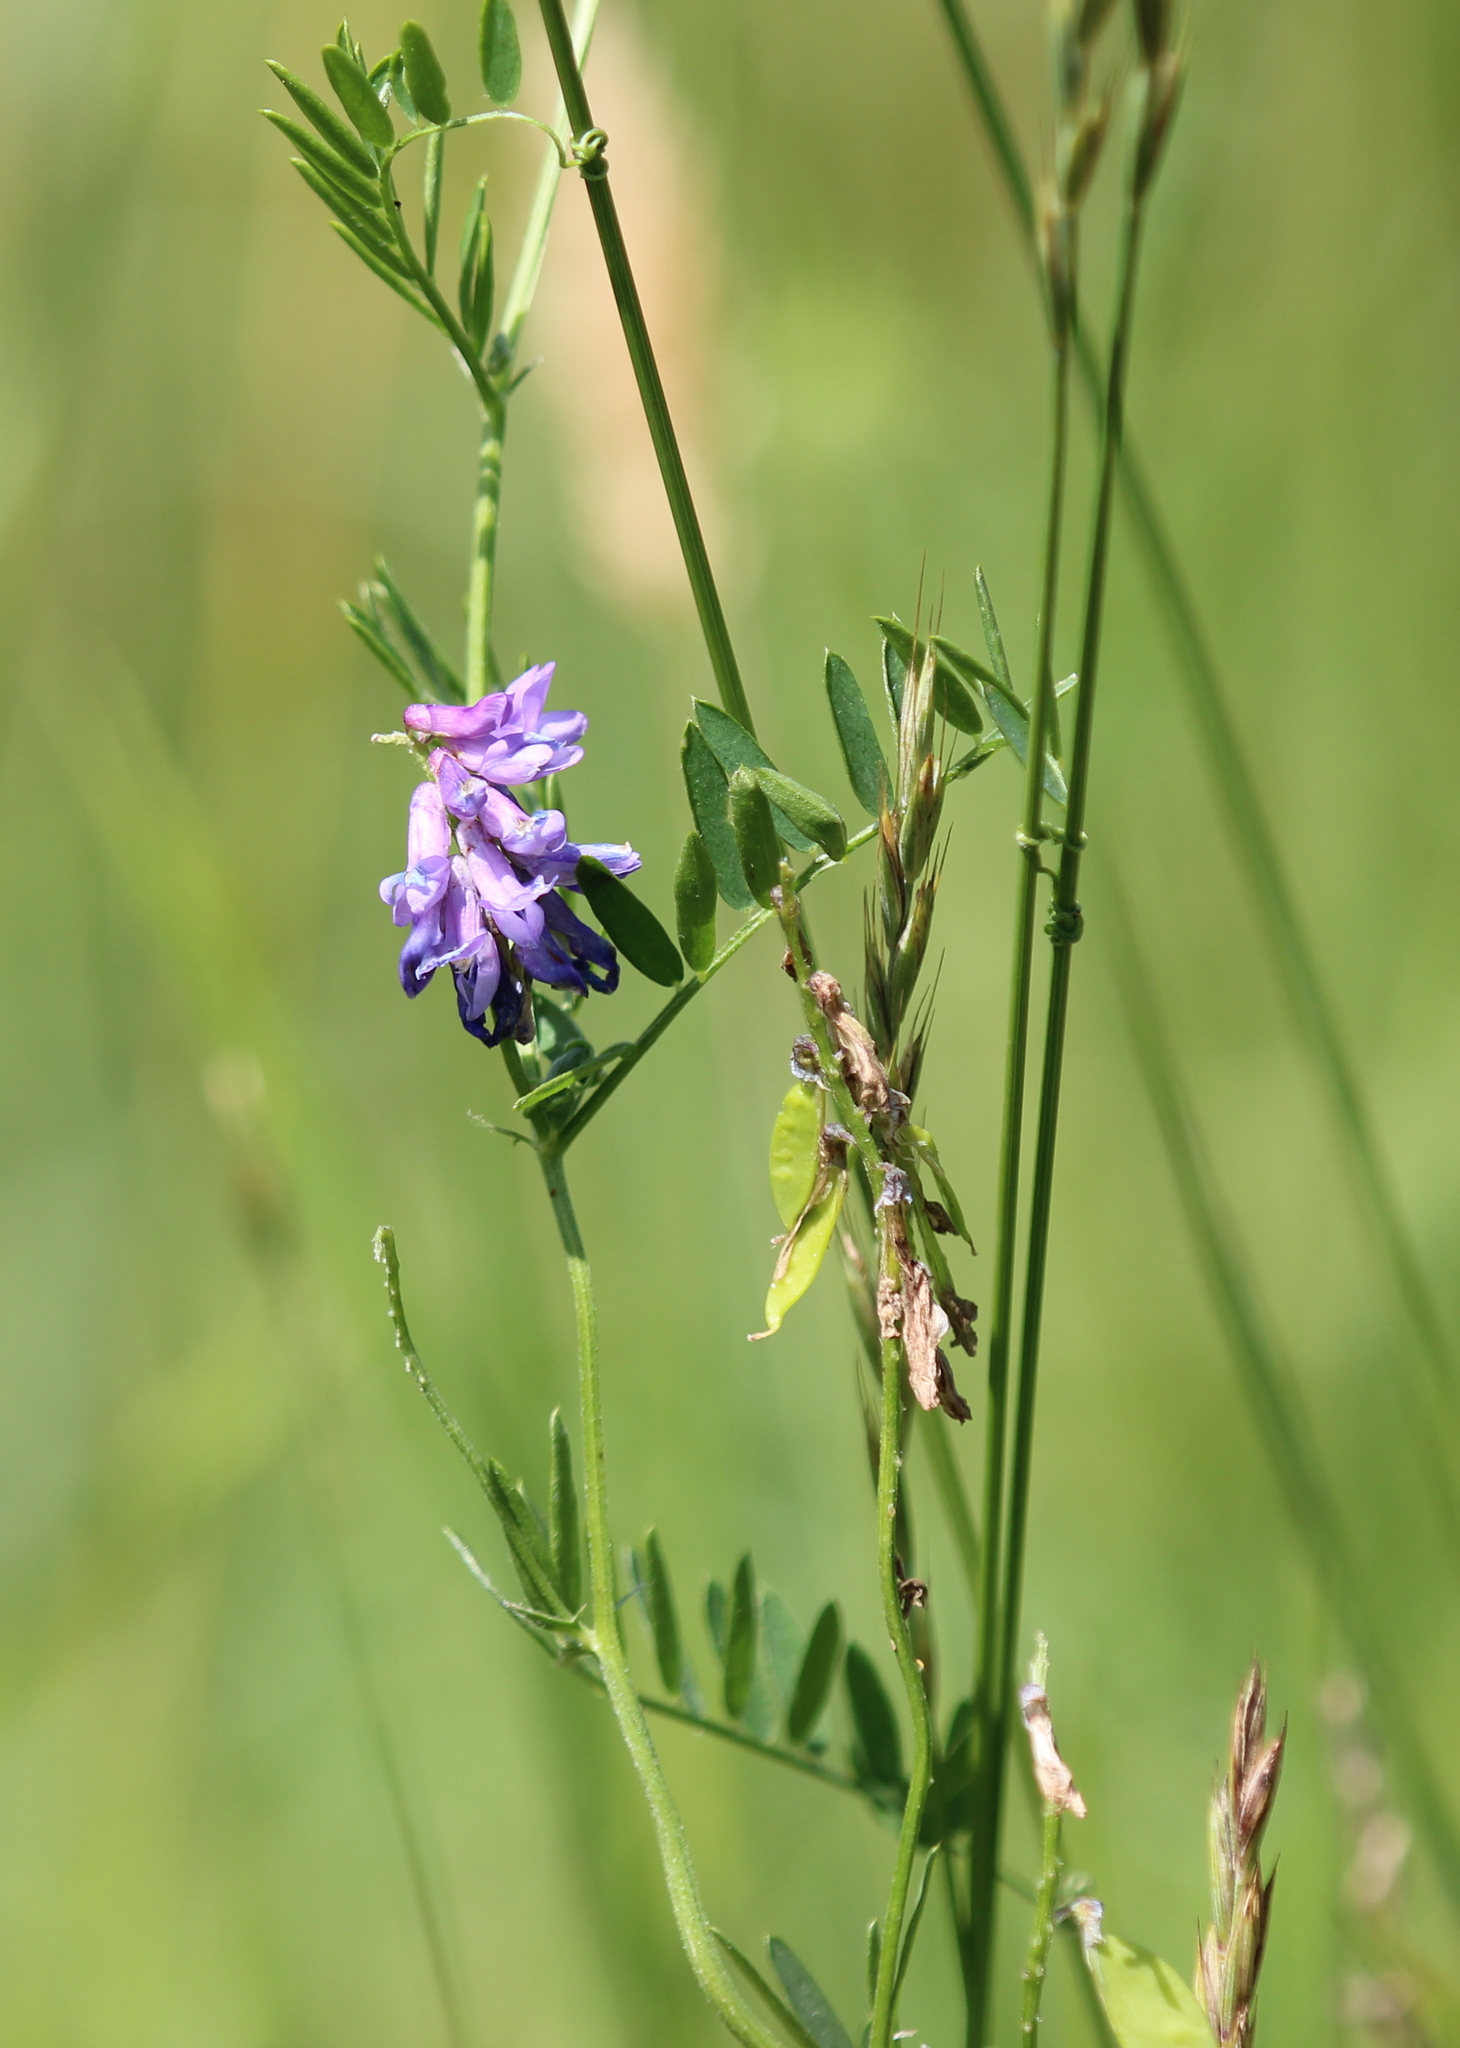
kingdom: Plantae
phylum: Tracheophyta
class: Magnoliopsida
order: Fabales
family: Fabaceae
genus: Vicia
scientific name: Vicia cracca
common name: Bird vetch
